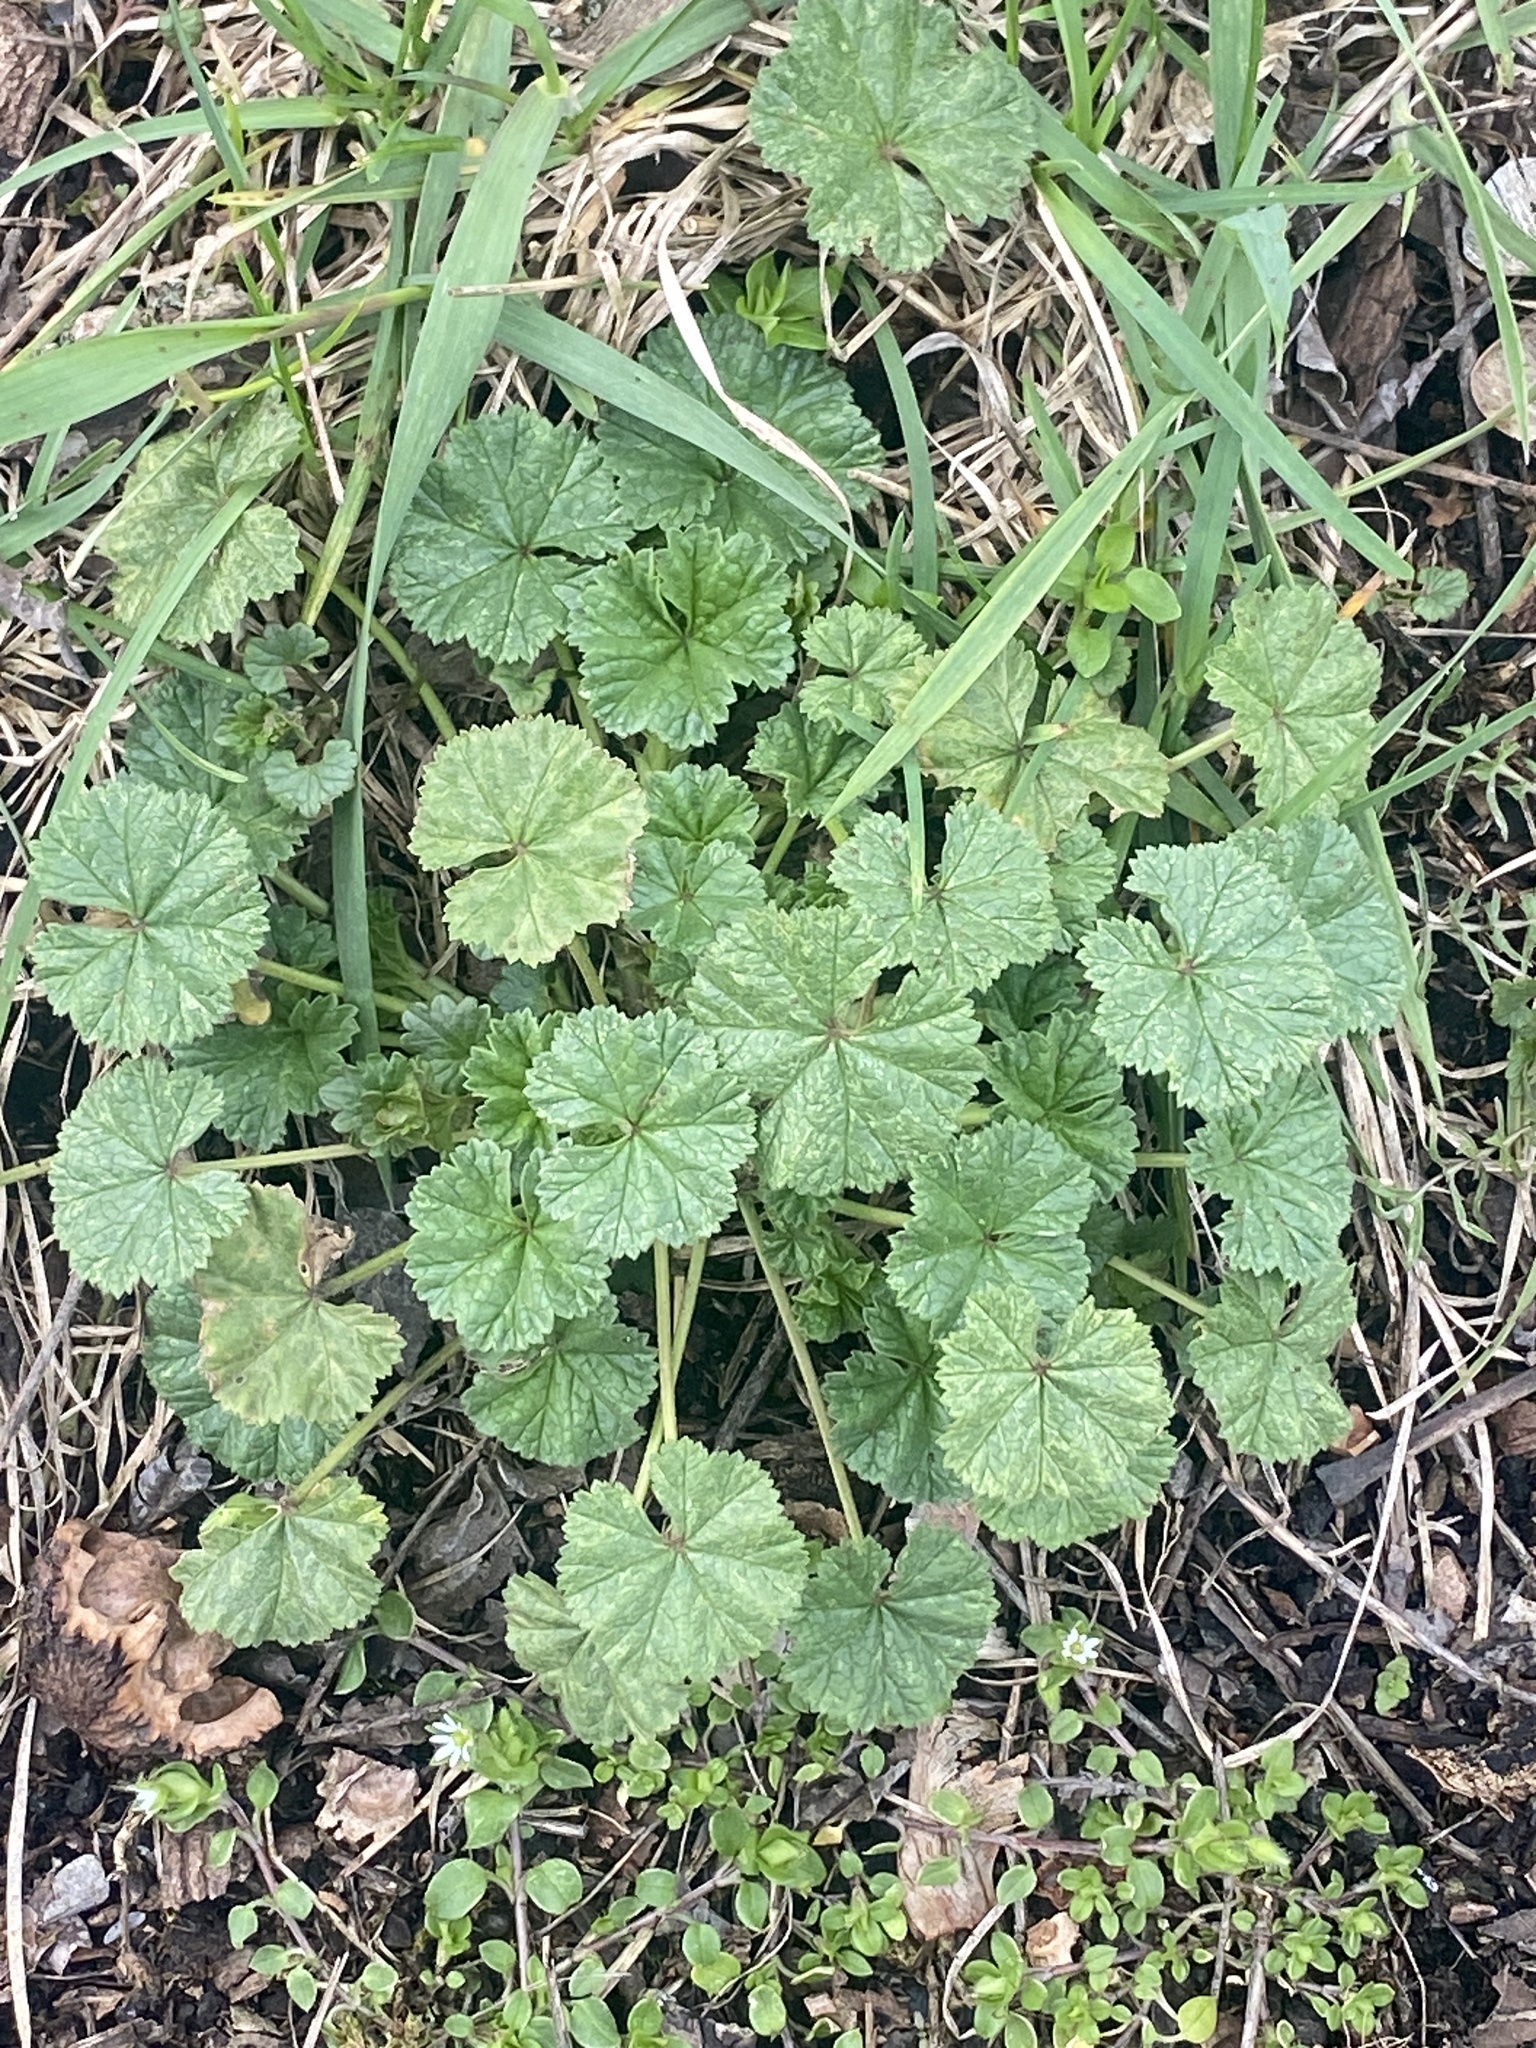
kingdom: Plantae
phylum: Tracheophyta
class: Magnoliopsida
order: Malvales
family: Malvaceae
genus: Malva
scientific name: Malva neglecta
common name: Common mallow
